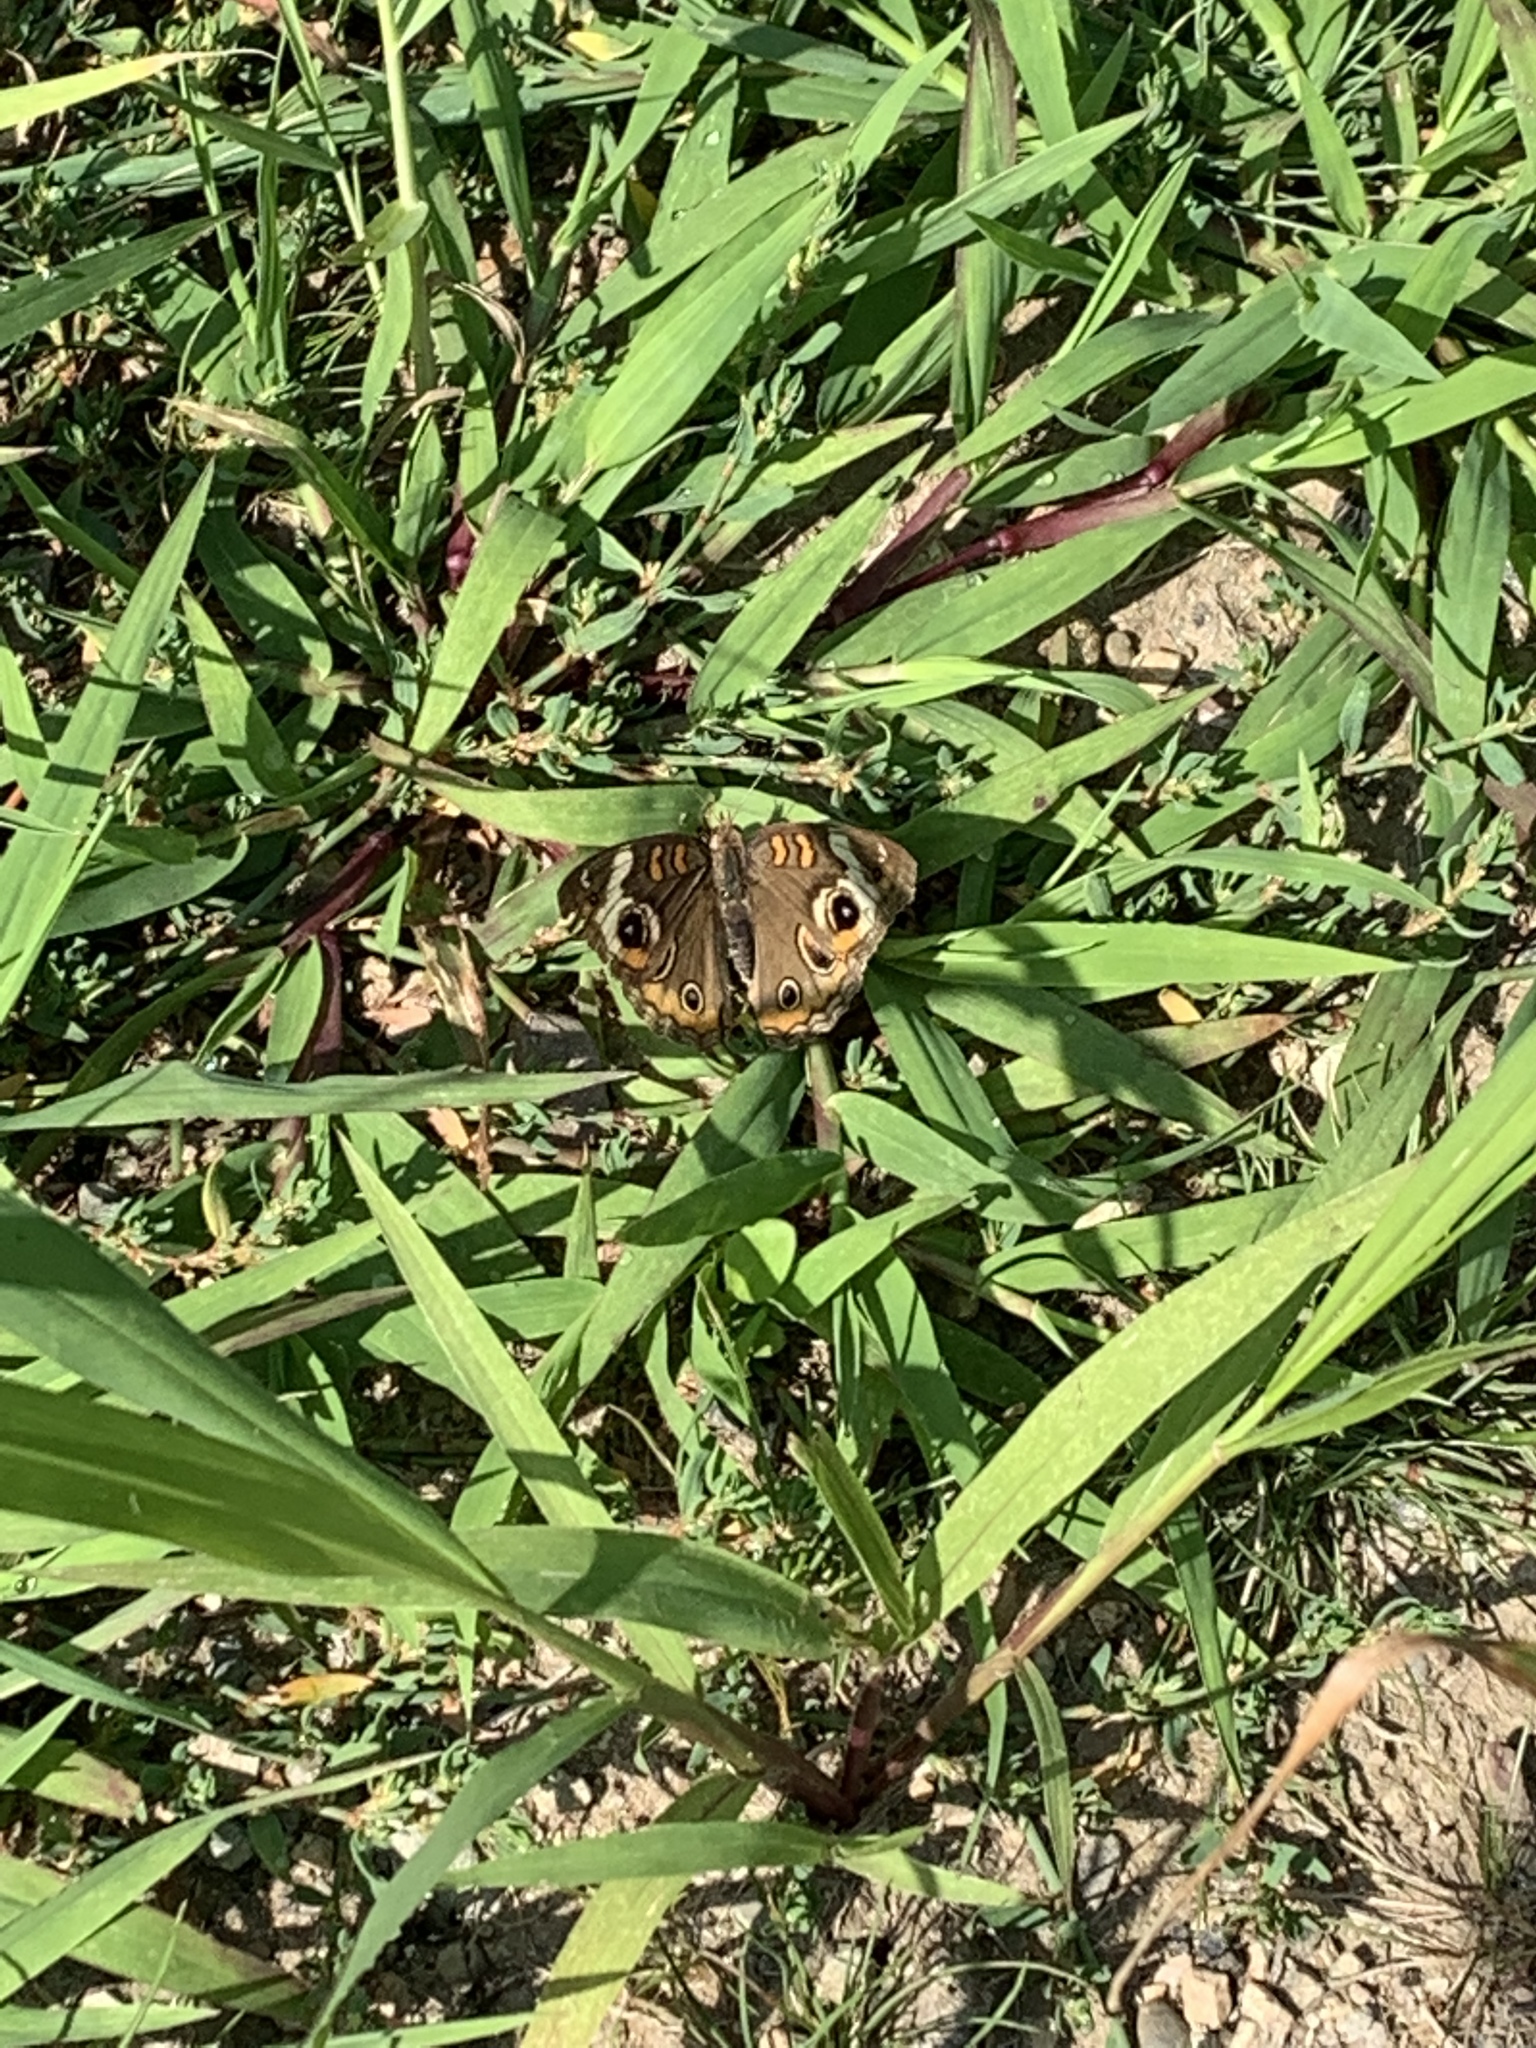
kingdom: Animalia
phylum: Arthropoda
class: Insecta
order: Lepidoptera
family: Nymphalidae
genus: Junonia
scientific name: Junonia coenia
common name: Common buckeye
